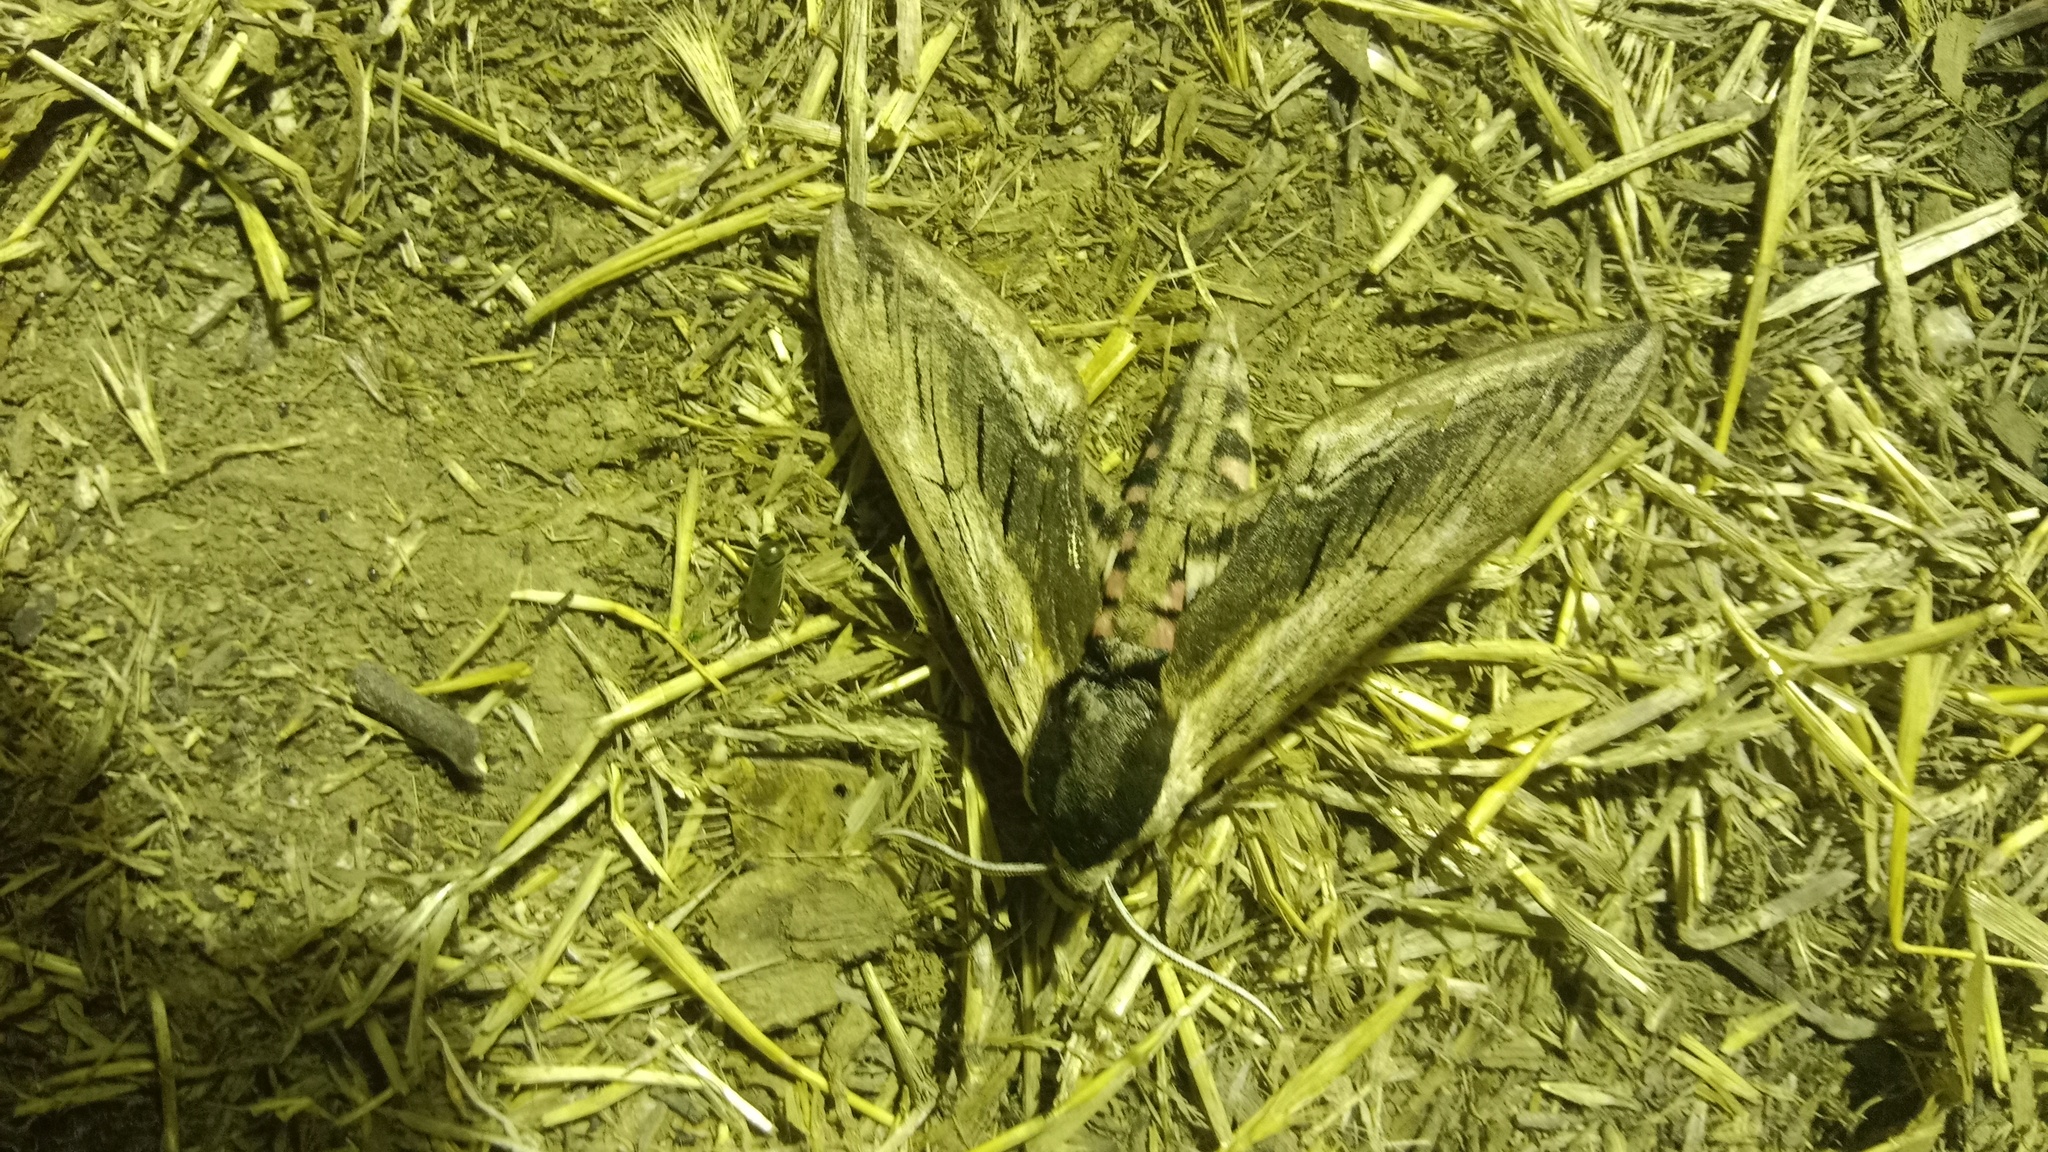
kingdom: Animalia
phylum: Arthropoda
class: Insecta
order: Lepidoptera
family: Sphingidae
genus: Sphinx
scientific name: Sphinx ligustri
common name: Privet hawk-moth
